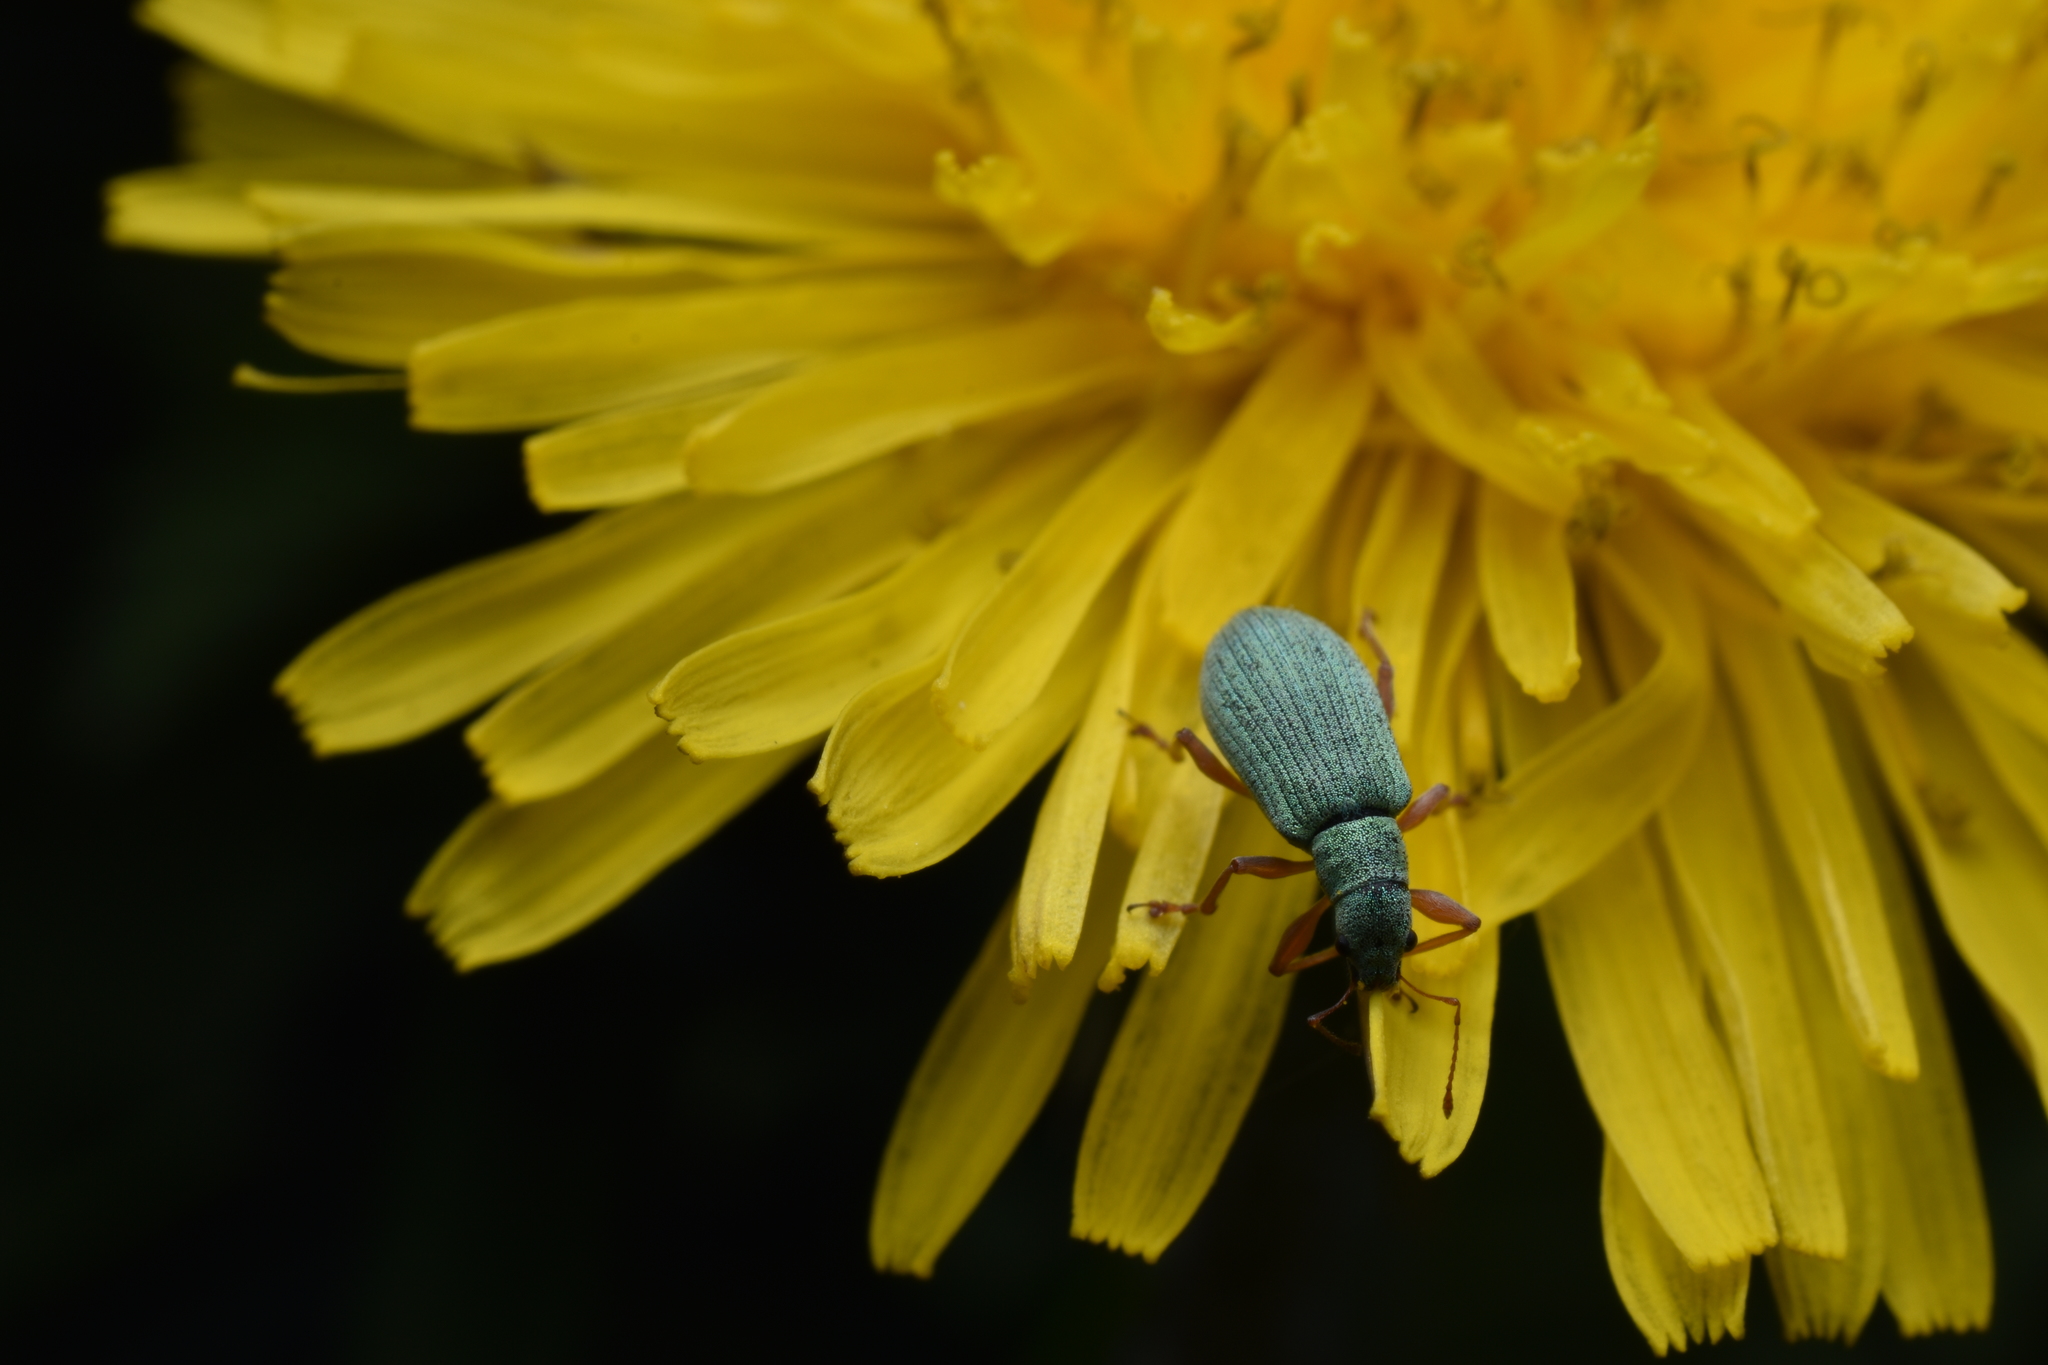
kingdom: Animalia
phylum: Arthropoda
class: Insecta
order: Coleoptera
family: Curculionidae
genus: Polydrusus
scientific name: Polydrusus impressifrons
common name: Weevil
